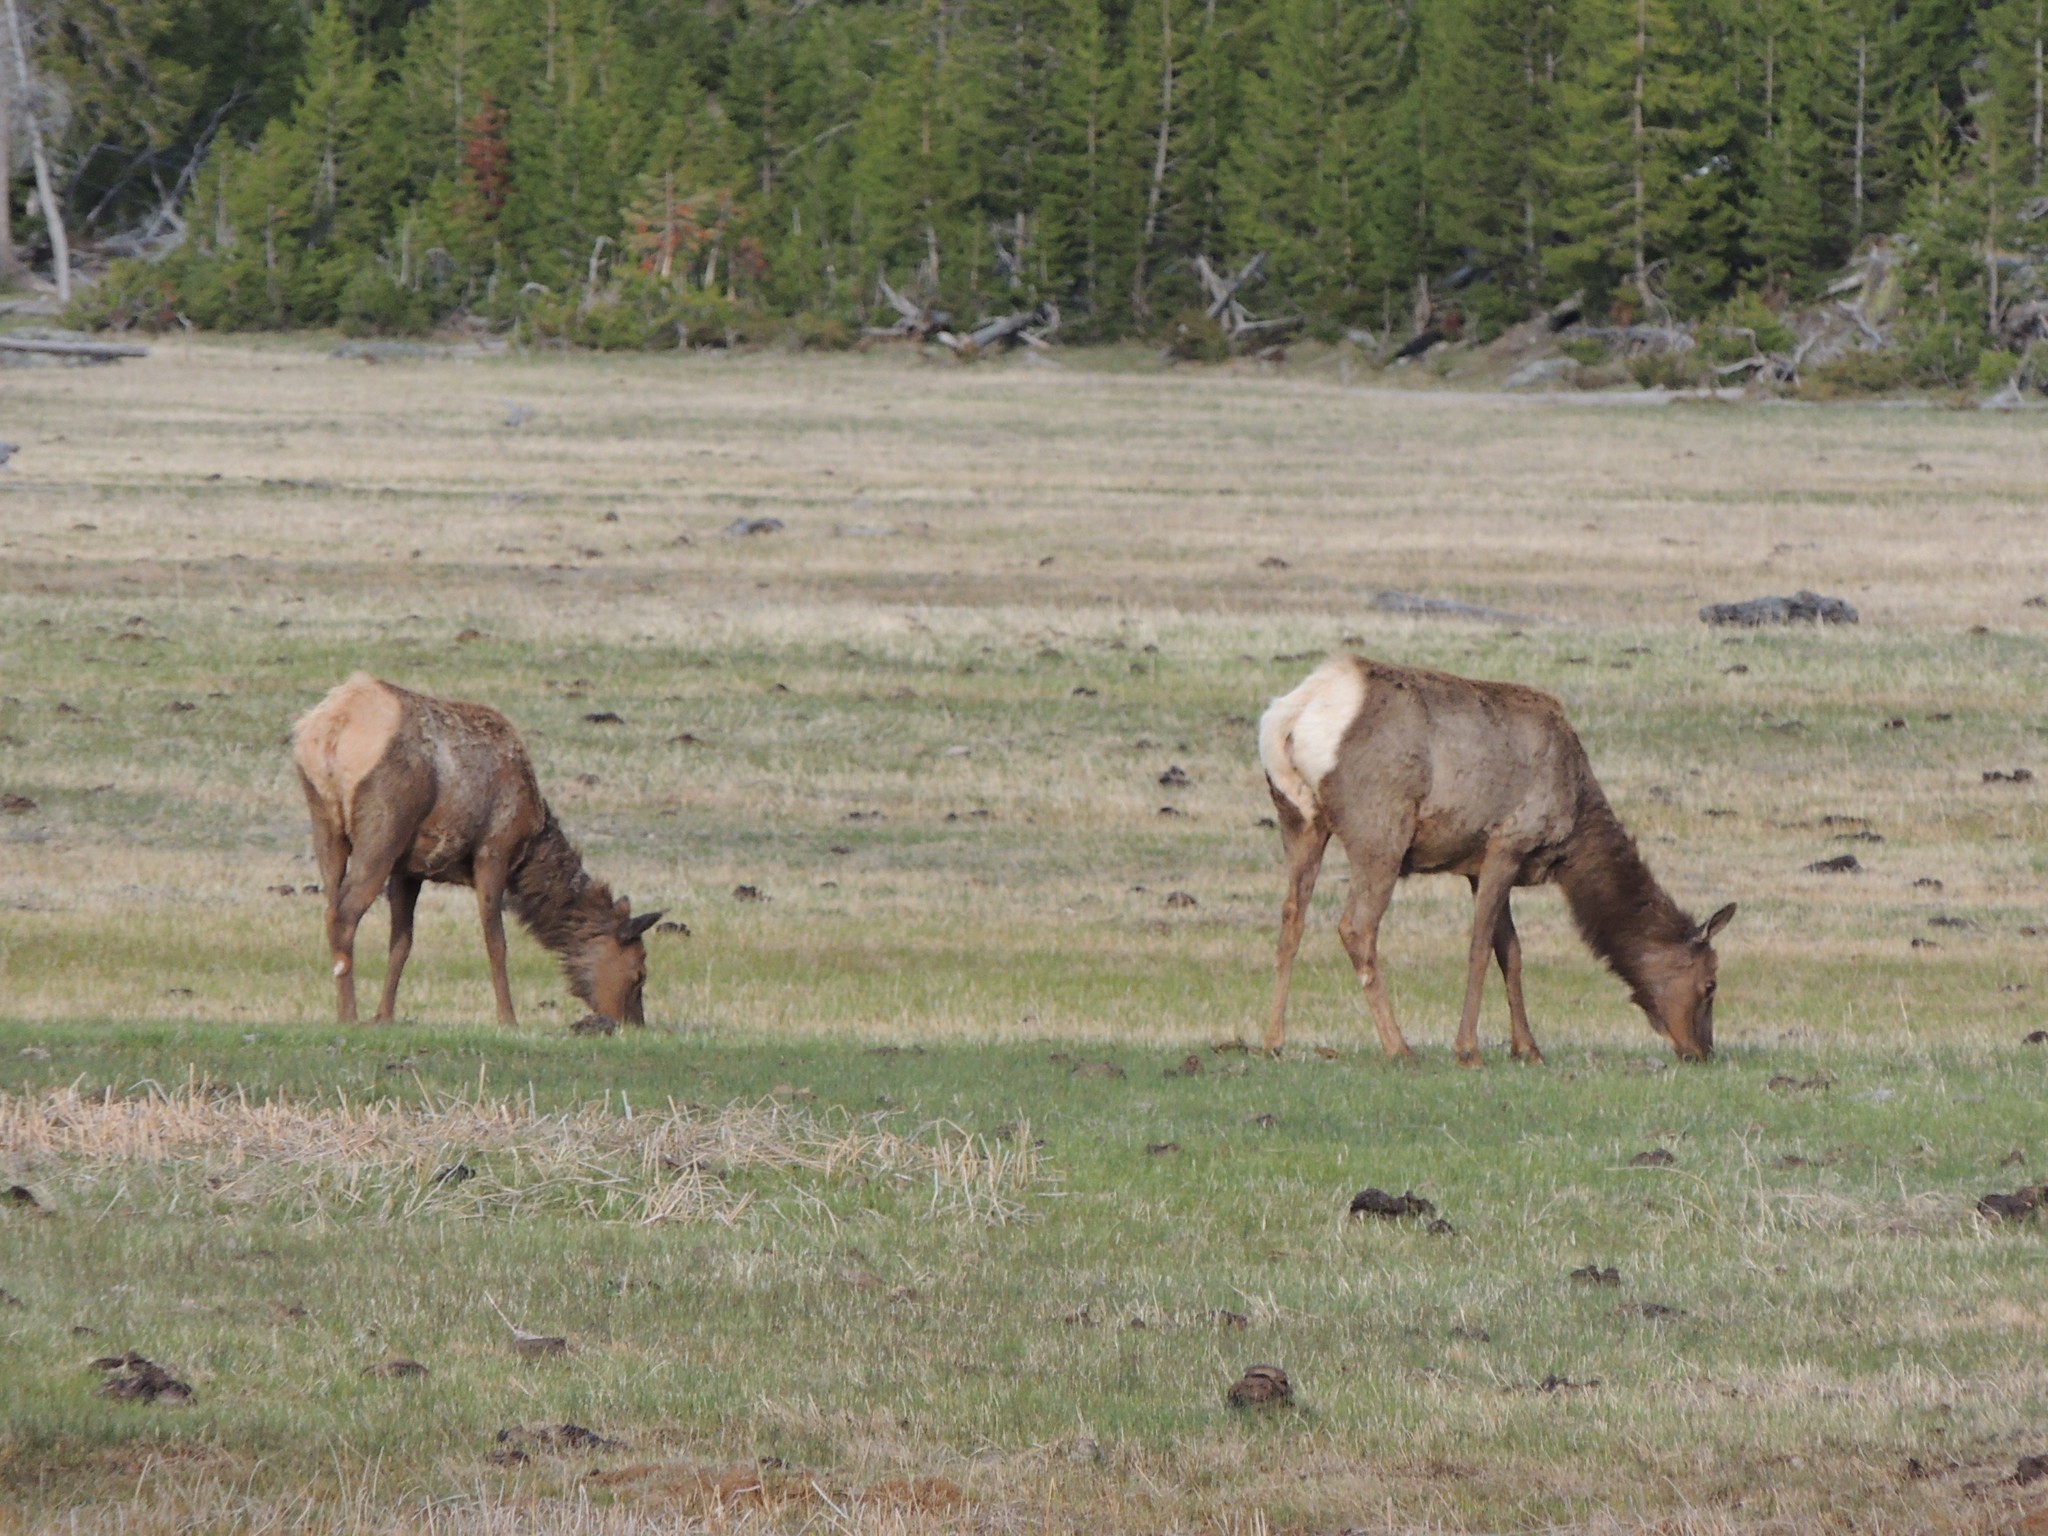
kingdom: Animalia
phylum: Chordata
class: Mammalia
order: Artiodactyla
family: Cervidae
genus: Cervus
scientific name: Cervus elaphus
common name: Red deer
